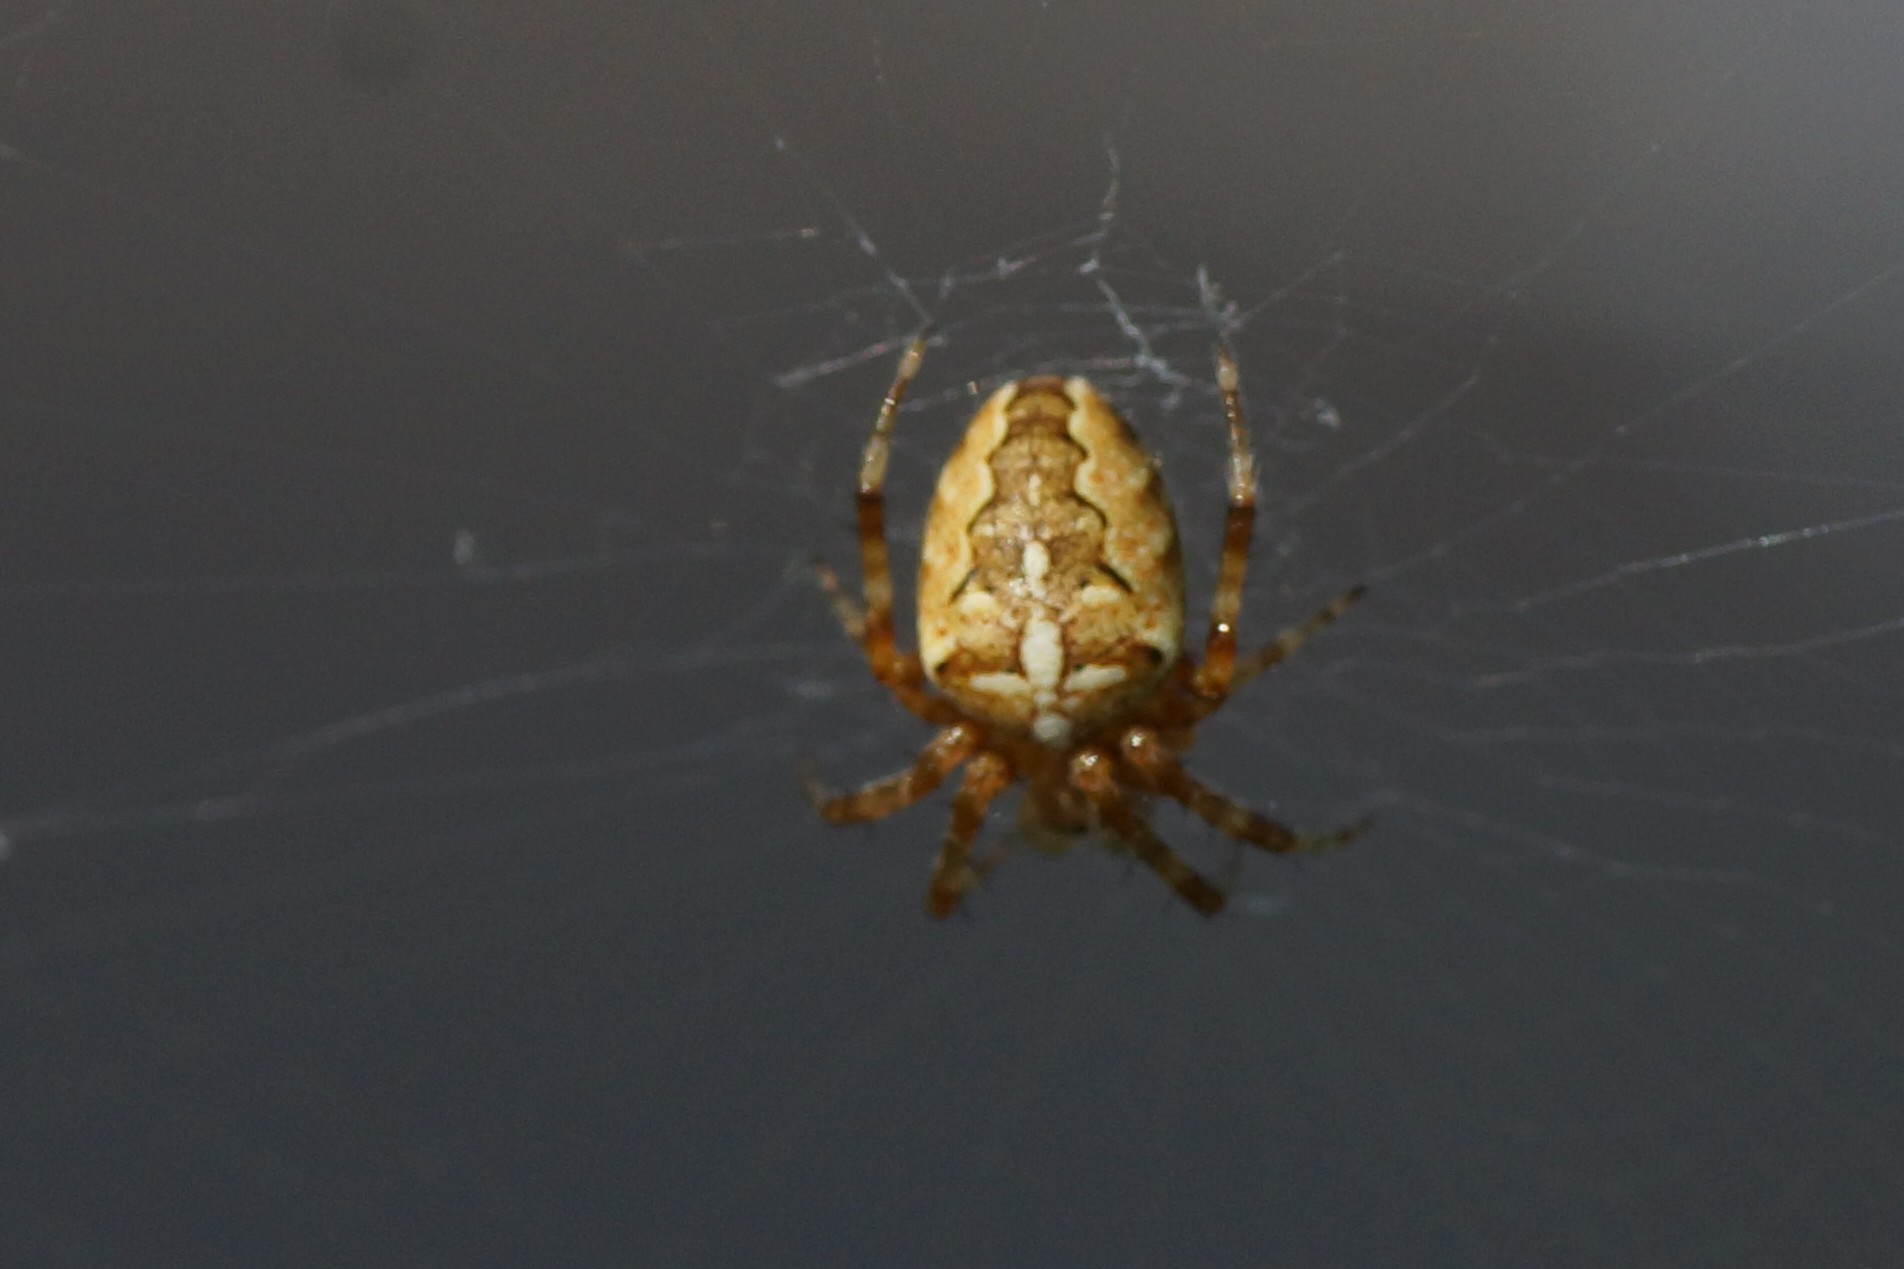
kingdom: Animalia
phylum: Arthropoda
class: Arachnida
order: Araneae
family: Araneidae
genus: Araneus
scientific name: Araneus diadematus
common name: Cross orbweaver
